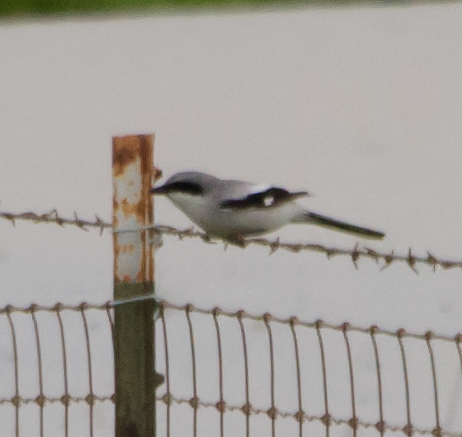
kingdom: Animalia
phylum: Chordata
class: Aves
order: Passeriformes
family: Laniidae
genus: Lanius
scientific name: Lanius ludovicianus
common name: Loggerhead shrike
